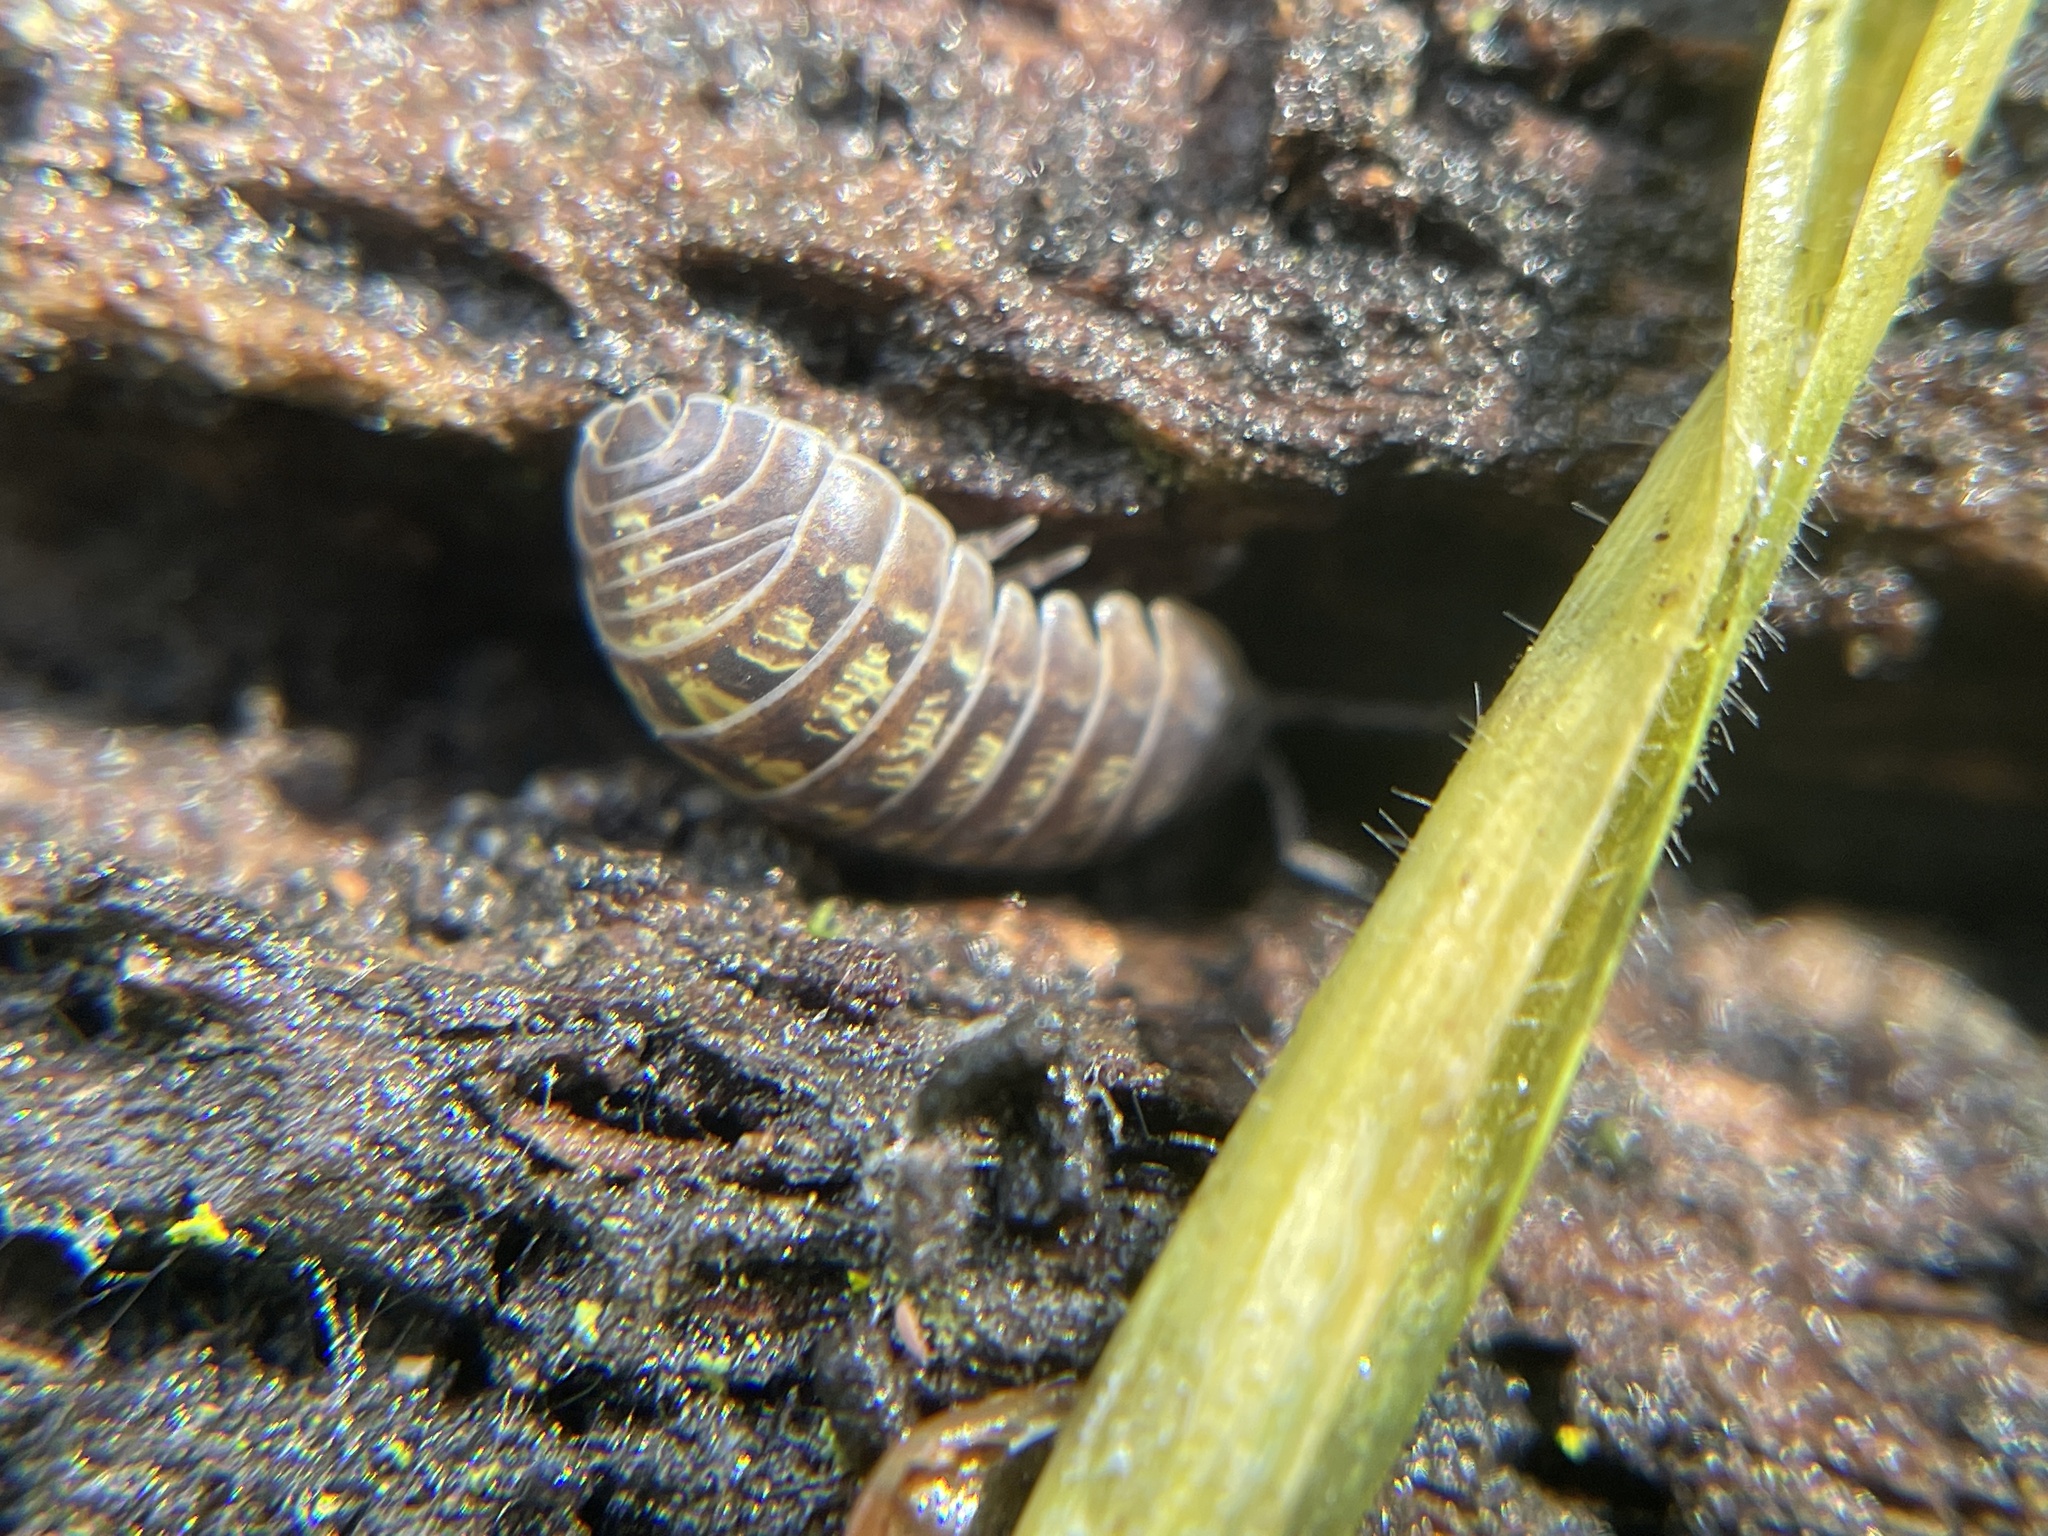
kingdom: Animalia
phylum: Arthropoda
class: Malacostraca
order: Isopoda
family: Armadillidiidae
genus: Armadillidium
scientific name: Armadillidium vulgare
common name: Common pill woodlouse
